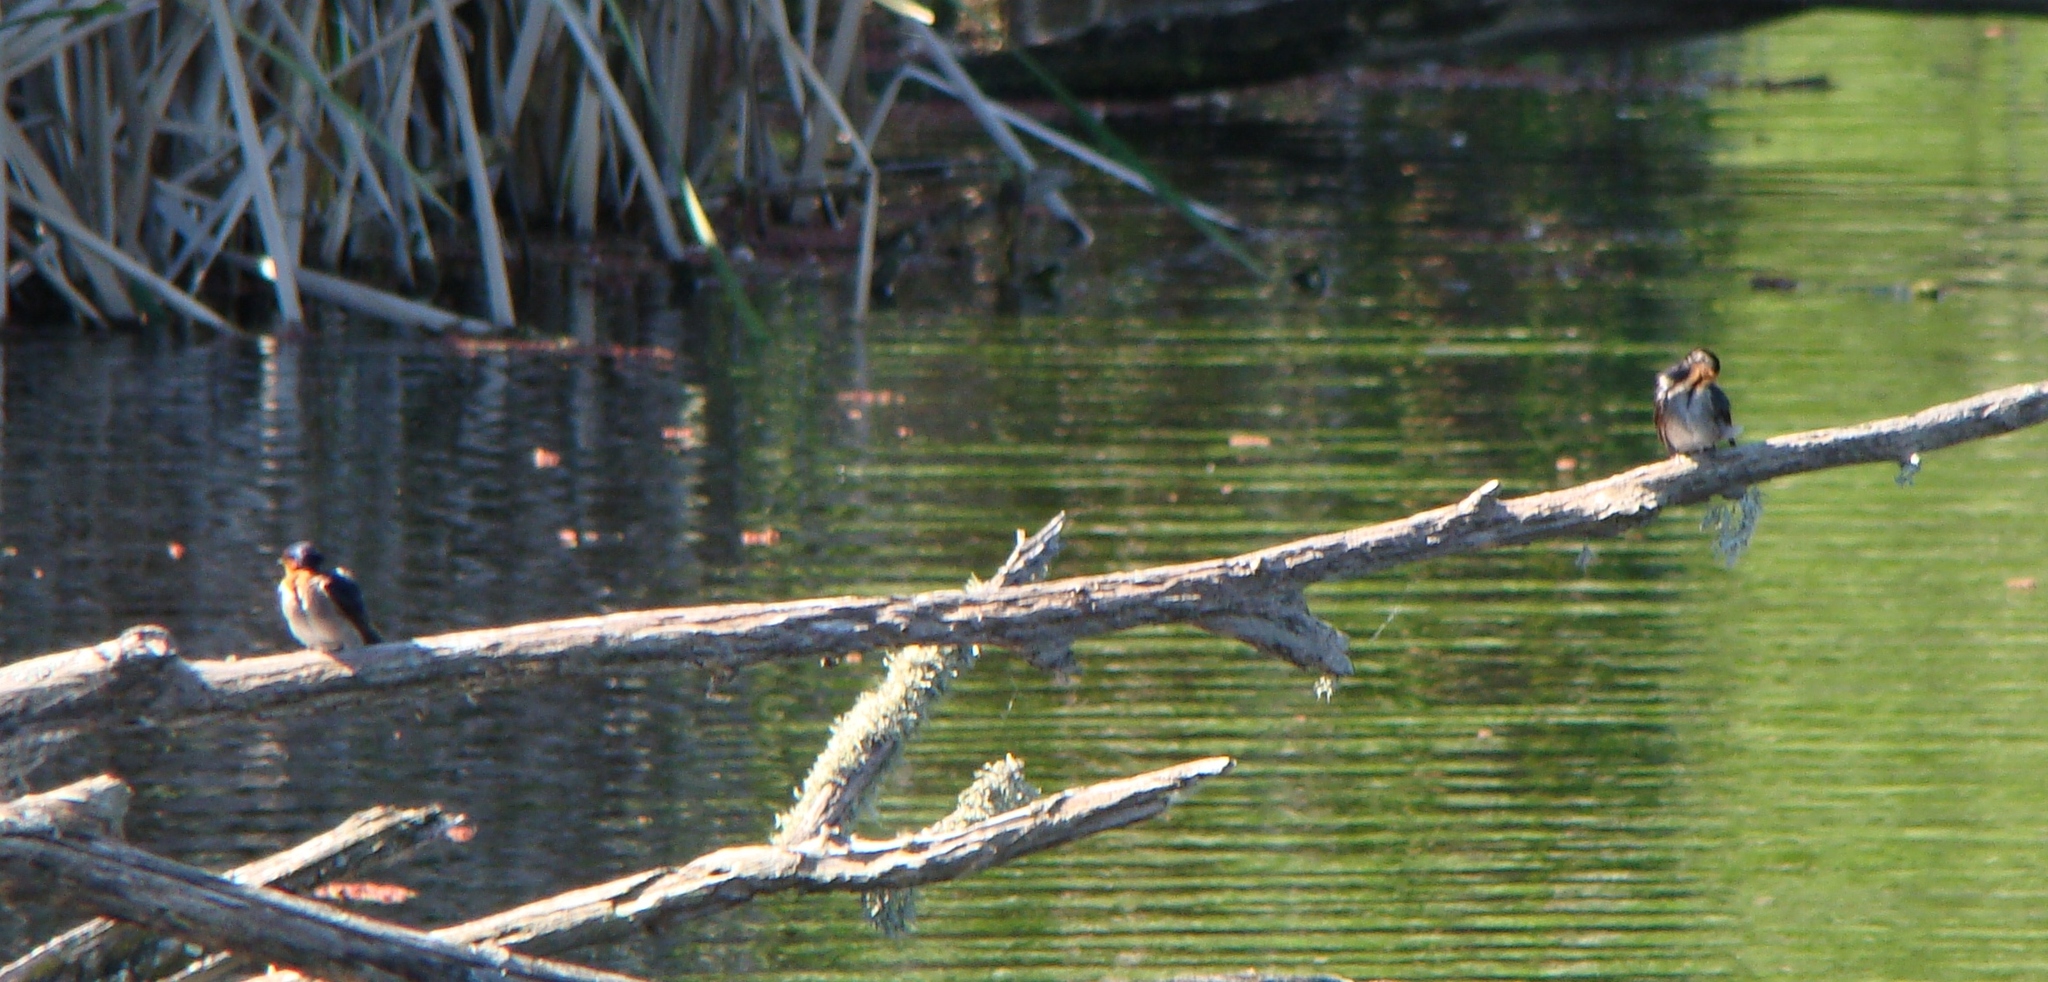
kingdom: Animalia
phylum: Chordata
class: Aves
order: Passeriformes
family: Hirundinidae
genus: Hirundo
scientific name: Hirundo neoxena
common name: Welcome swallow
